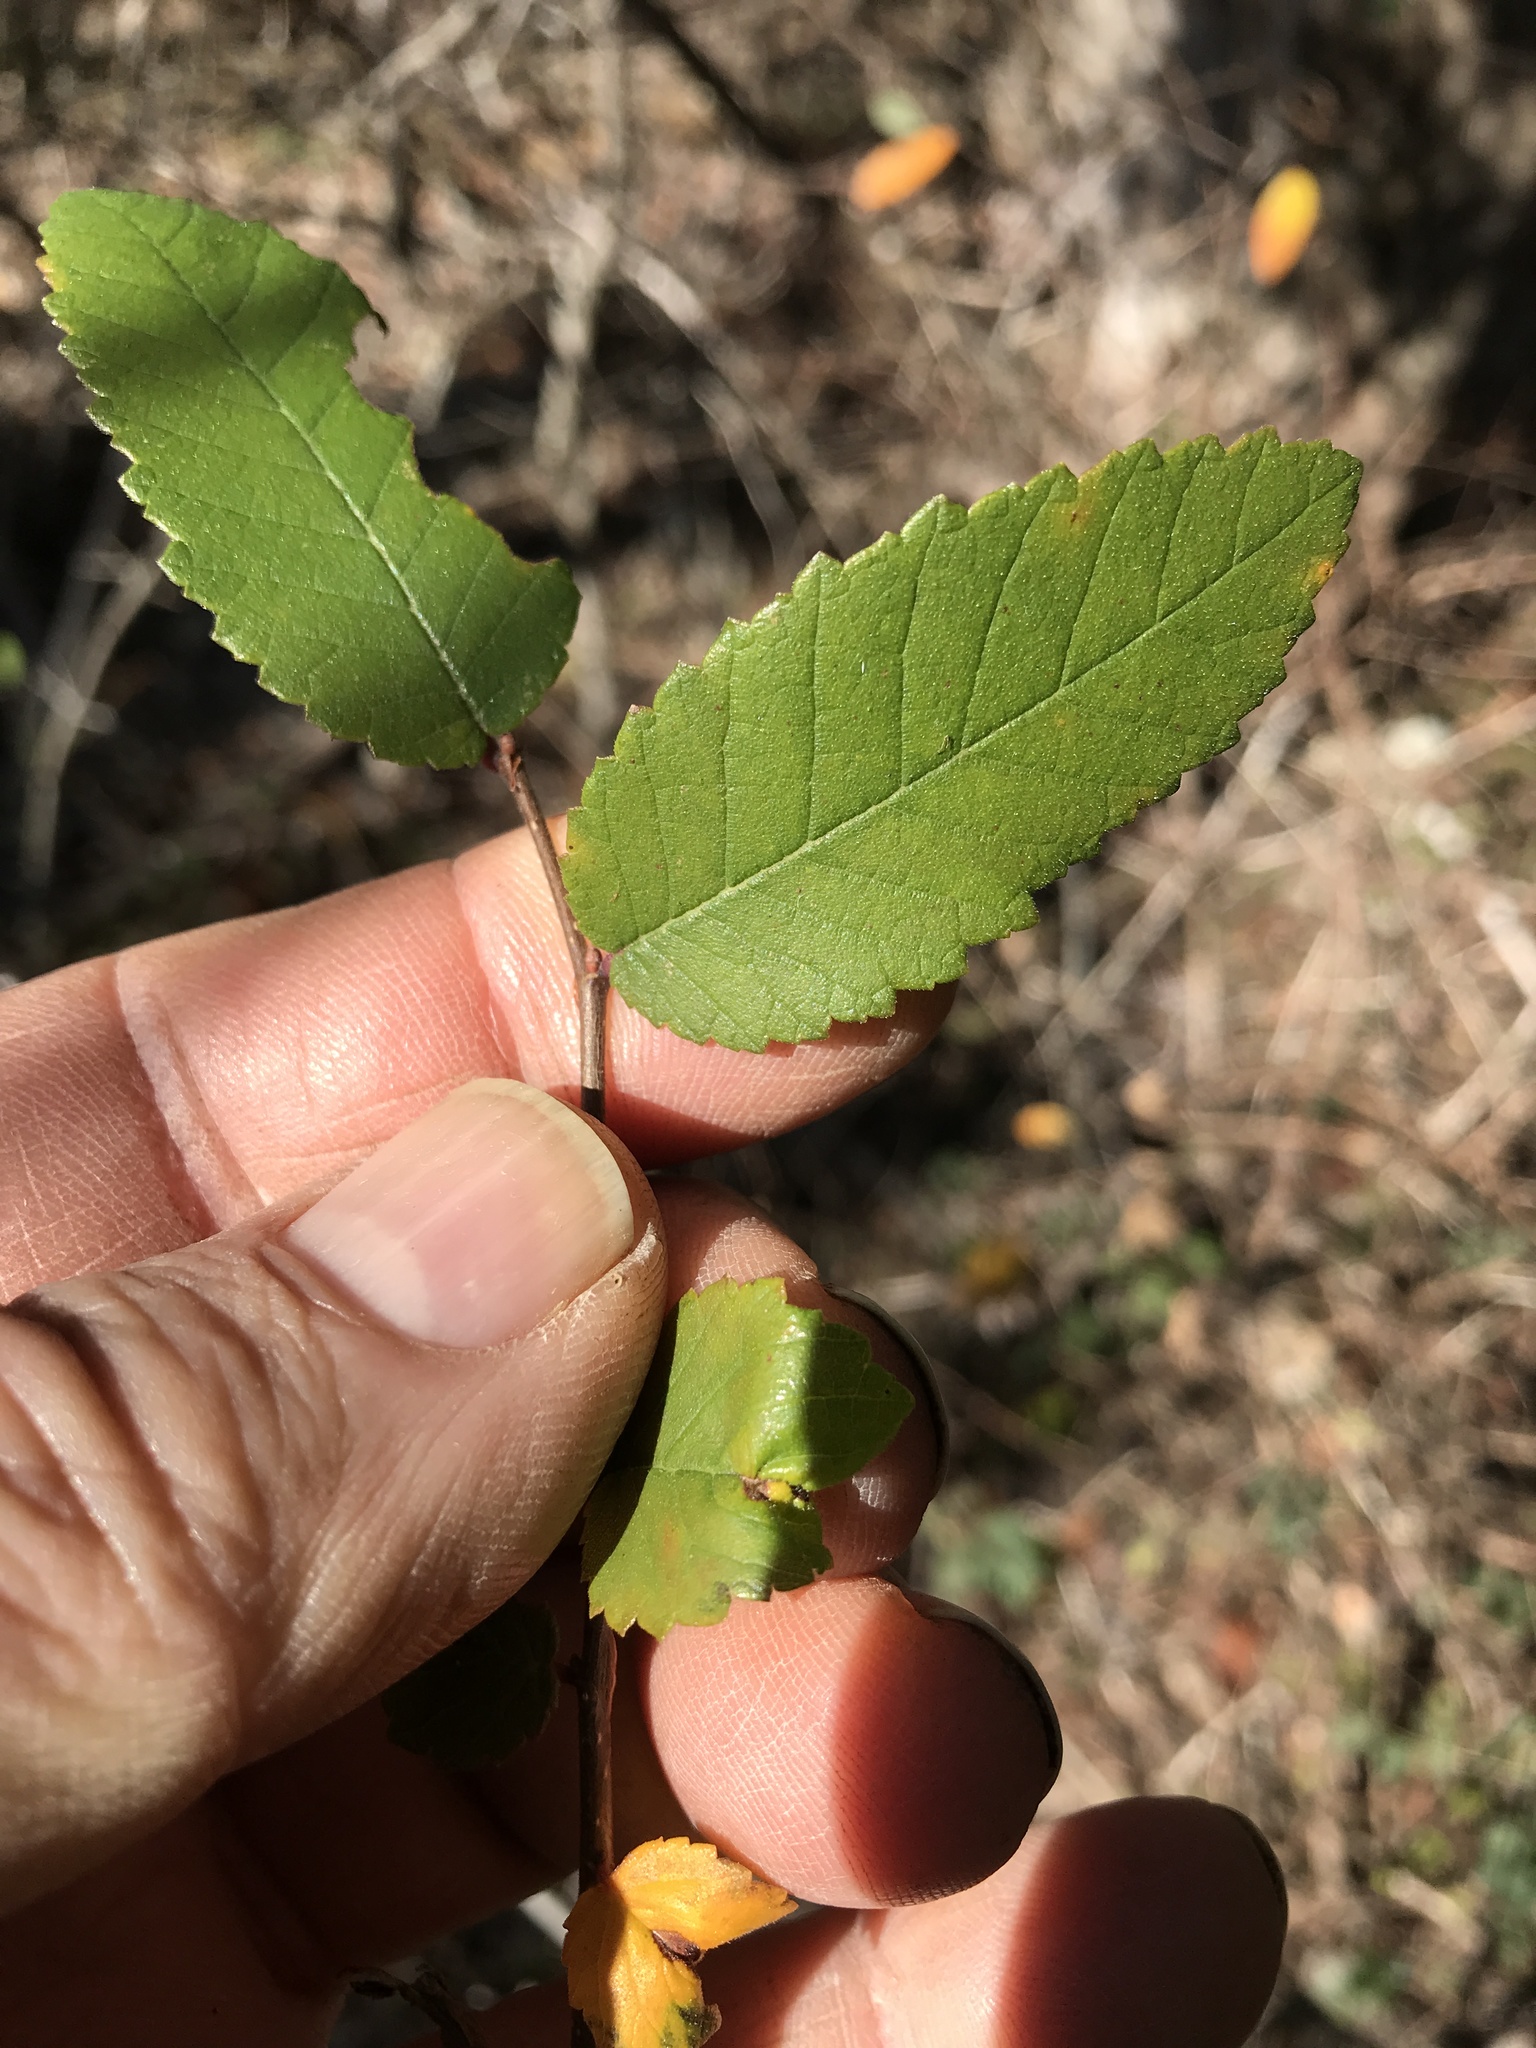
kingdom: Plantae
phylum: Tracheophyta
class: Magnoliopsida
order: Rosales
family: Ulmaceae
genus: Ulmus
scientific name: Ulmus crassifolia
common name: Basket elm
